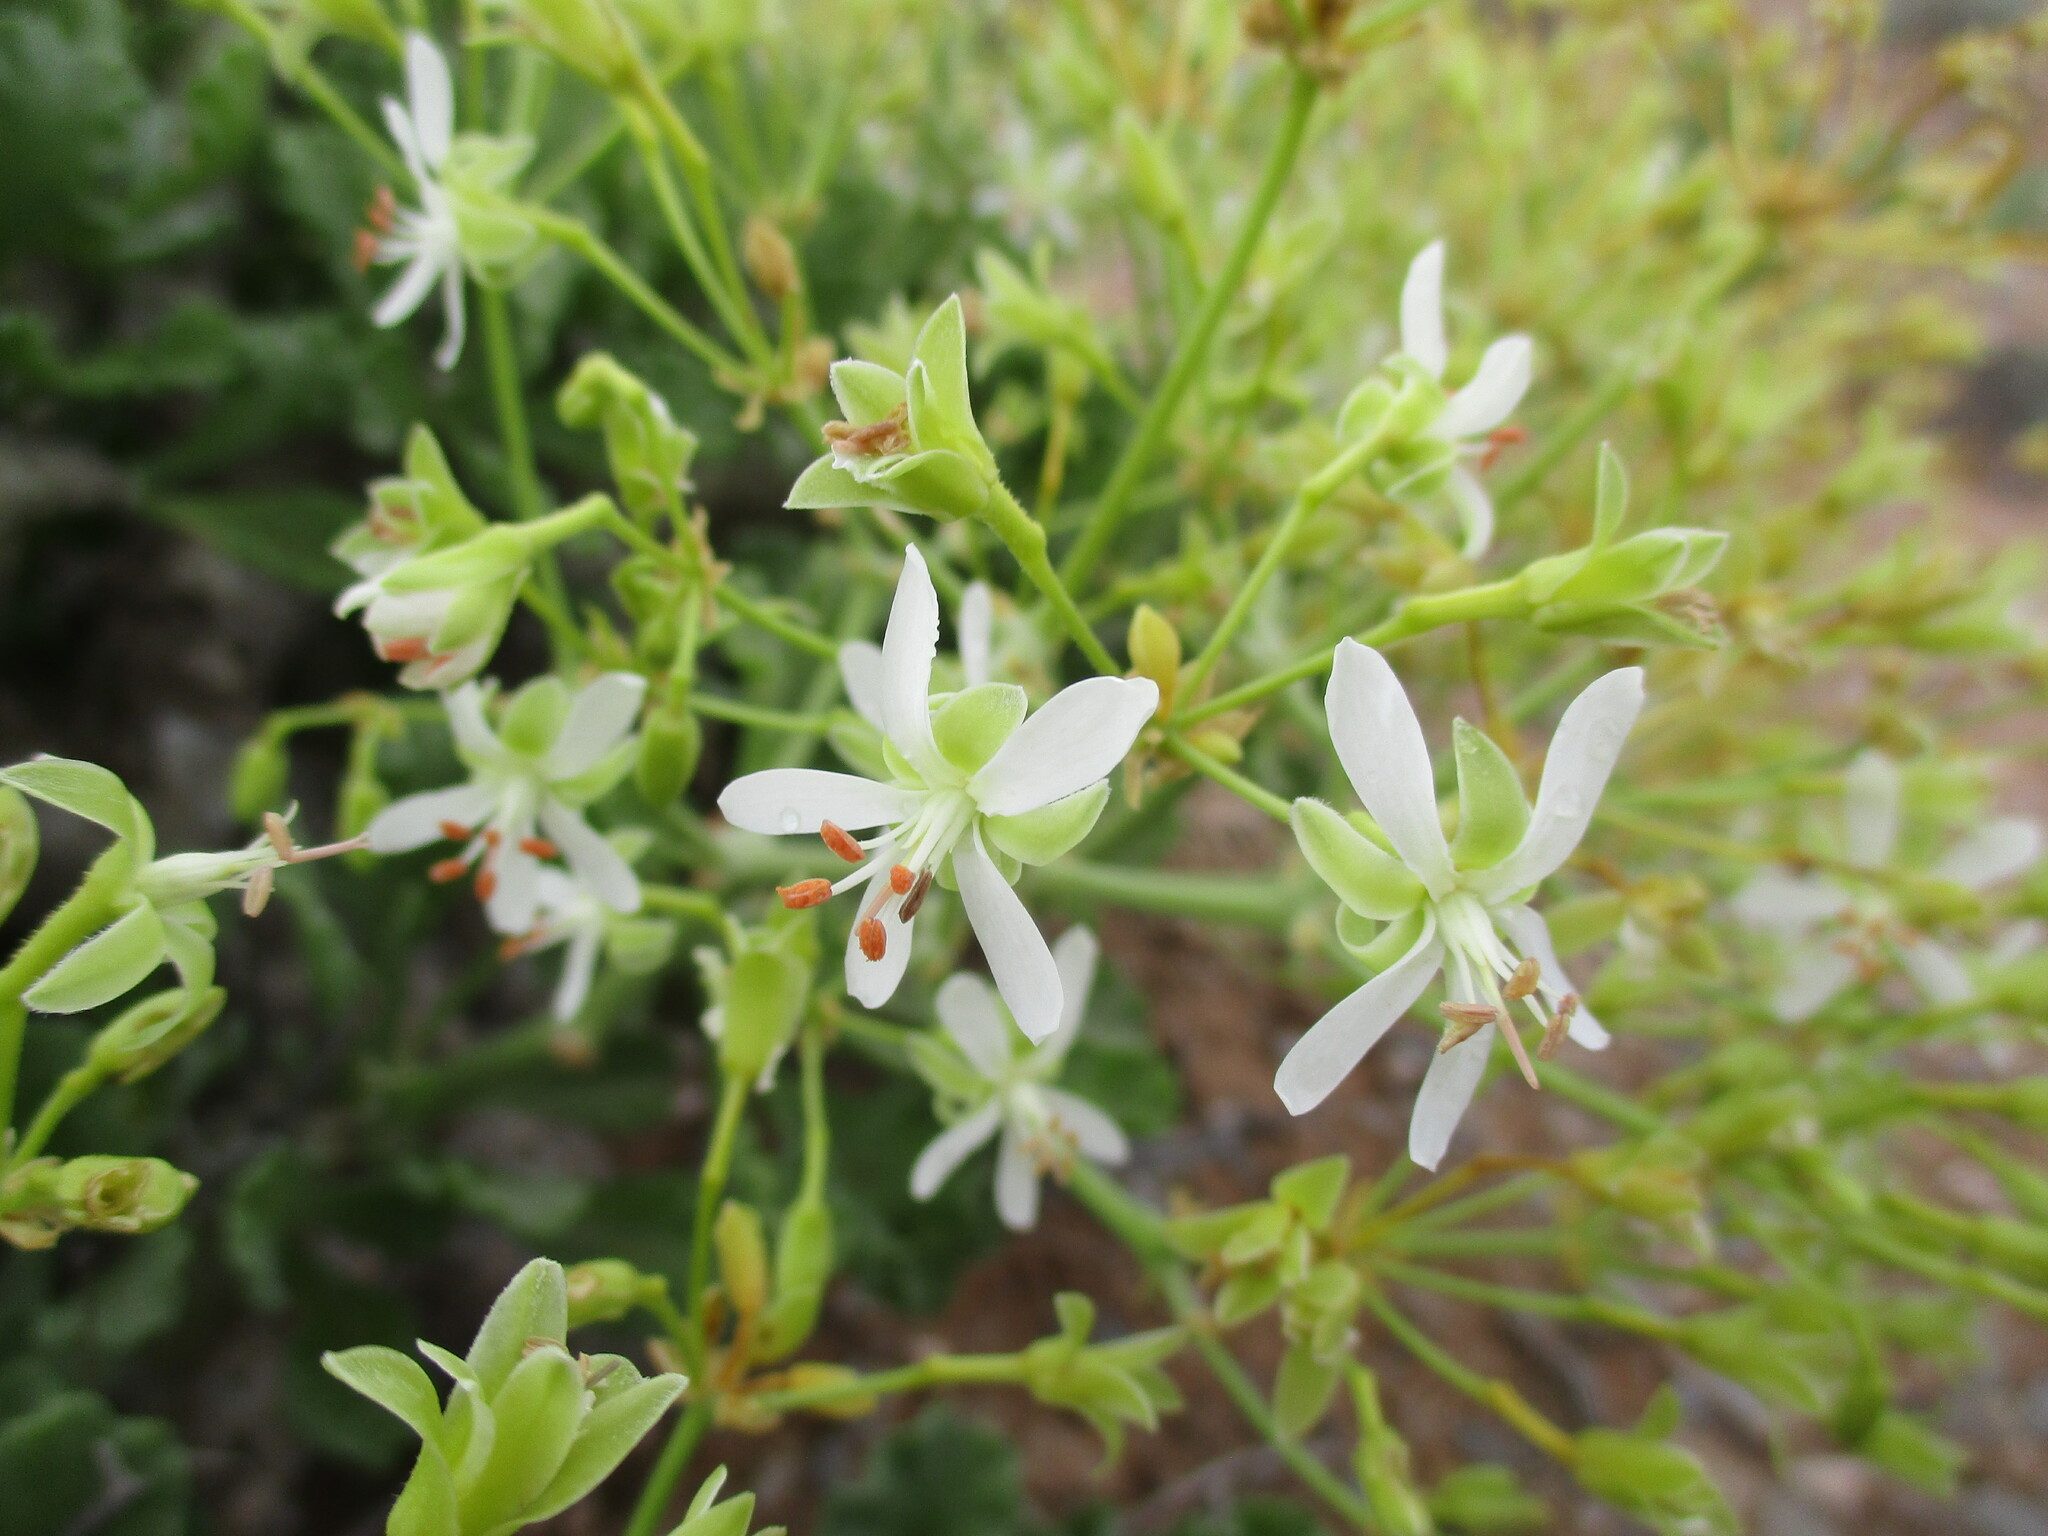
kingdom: Plantae
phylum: Tracheophyta
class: Magnoliopsida
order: Geraniales
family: Geraniaceae
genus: Pelargonium
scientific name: Pelargonium klinghardtense
